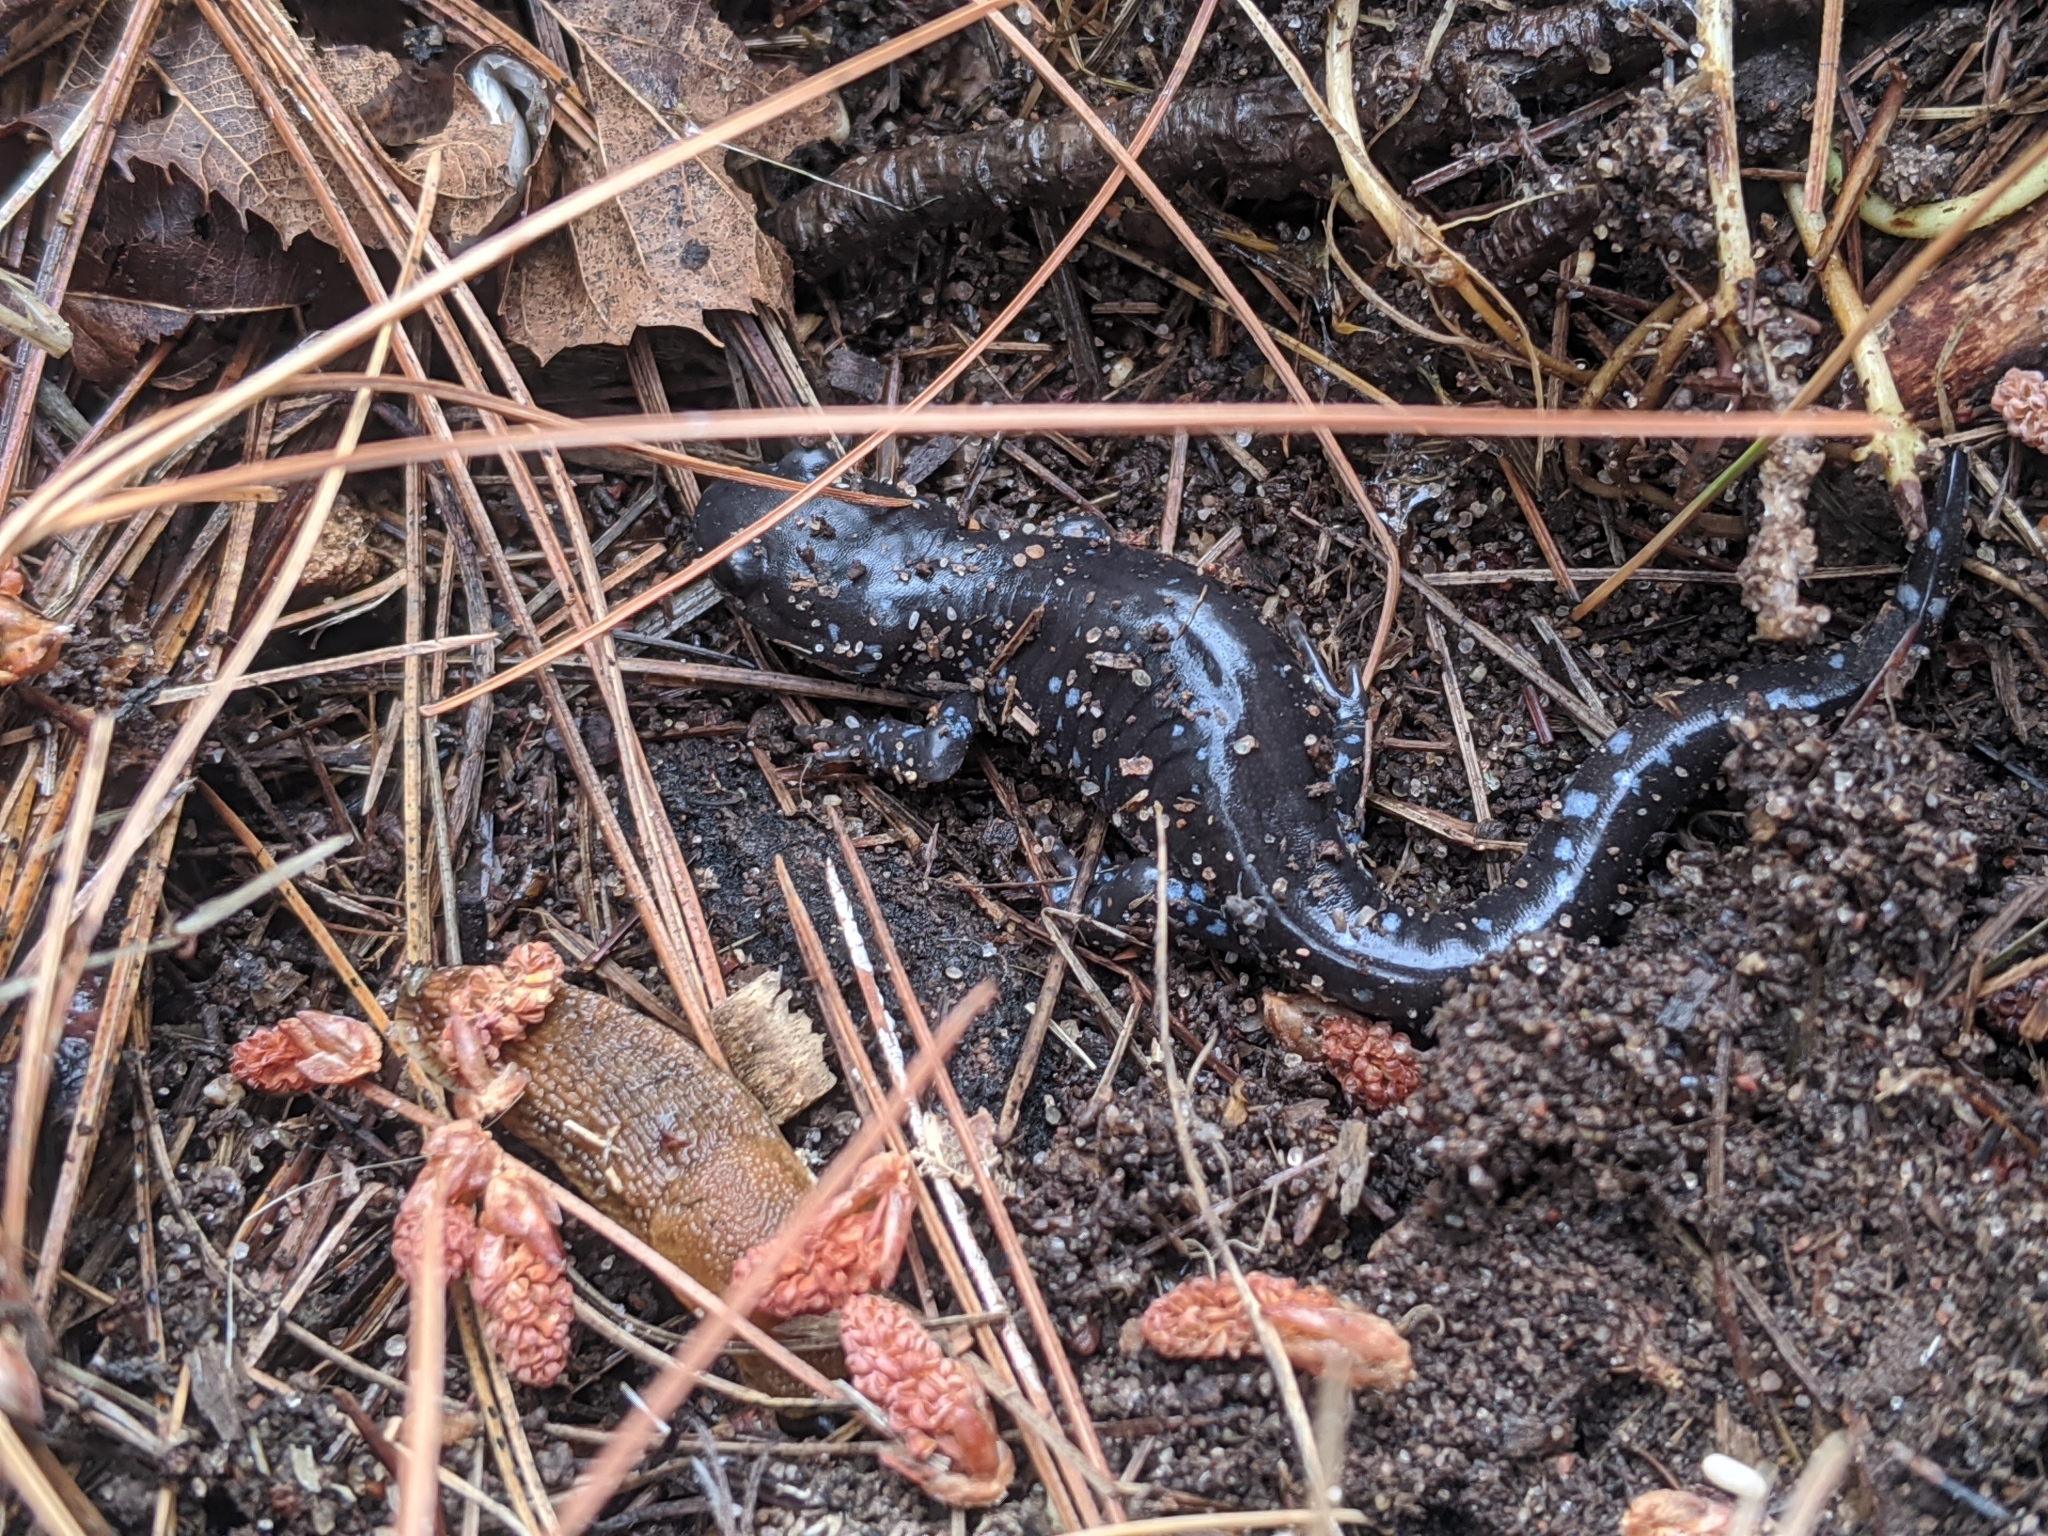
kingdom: Animalia
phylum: Chordata
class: Amphibia
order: Caudata
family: Ambystomatidae
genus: Ambystoma
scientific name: Ambystoma laterale
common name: Blue-spotted salamander
